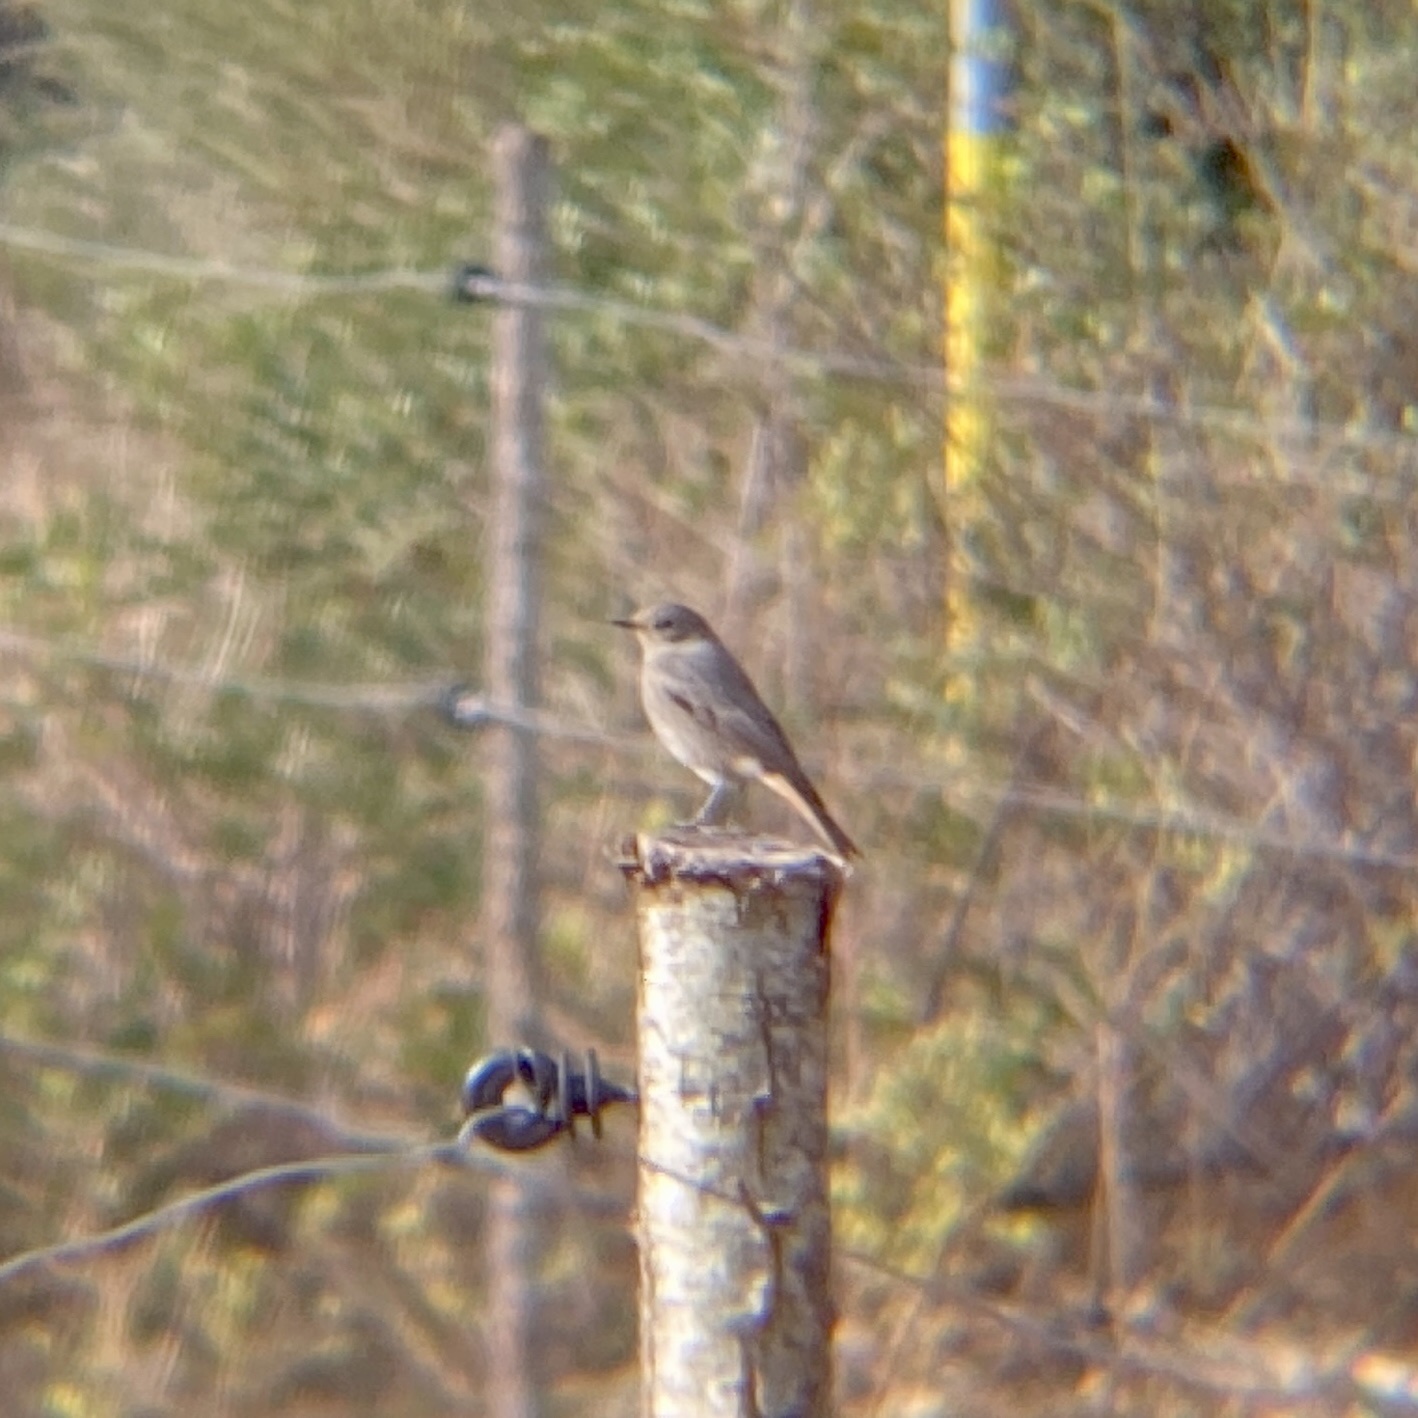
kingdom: Animalia
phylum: Chordata
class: Aves
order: Passeriformes
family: Muscicapidae
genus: Phoenicurus
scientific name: Phoenicurus ochruros
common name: Black redstart
